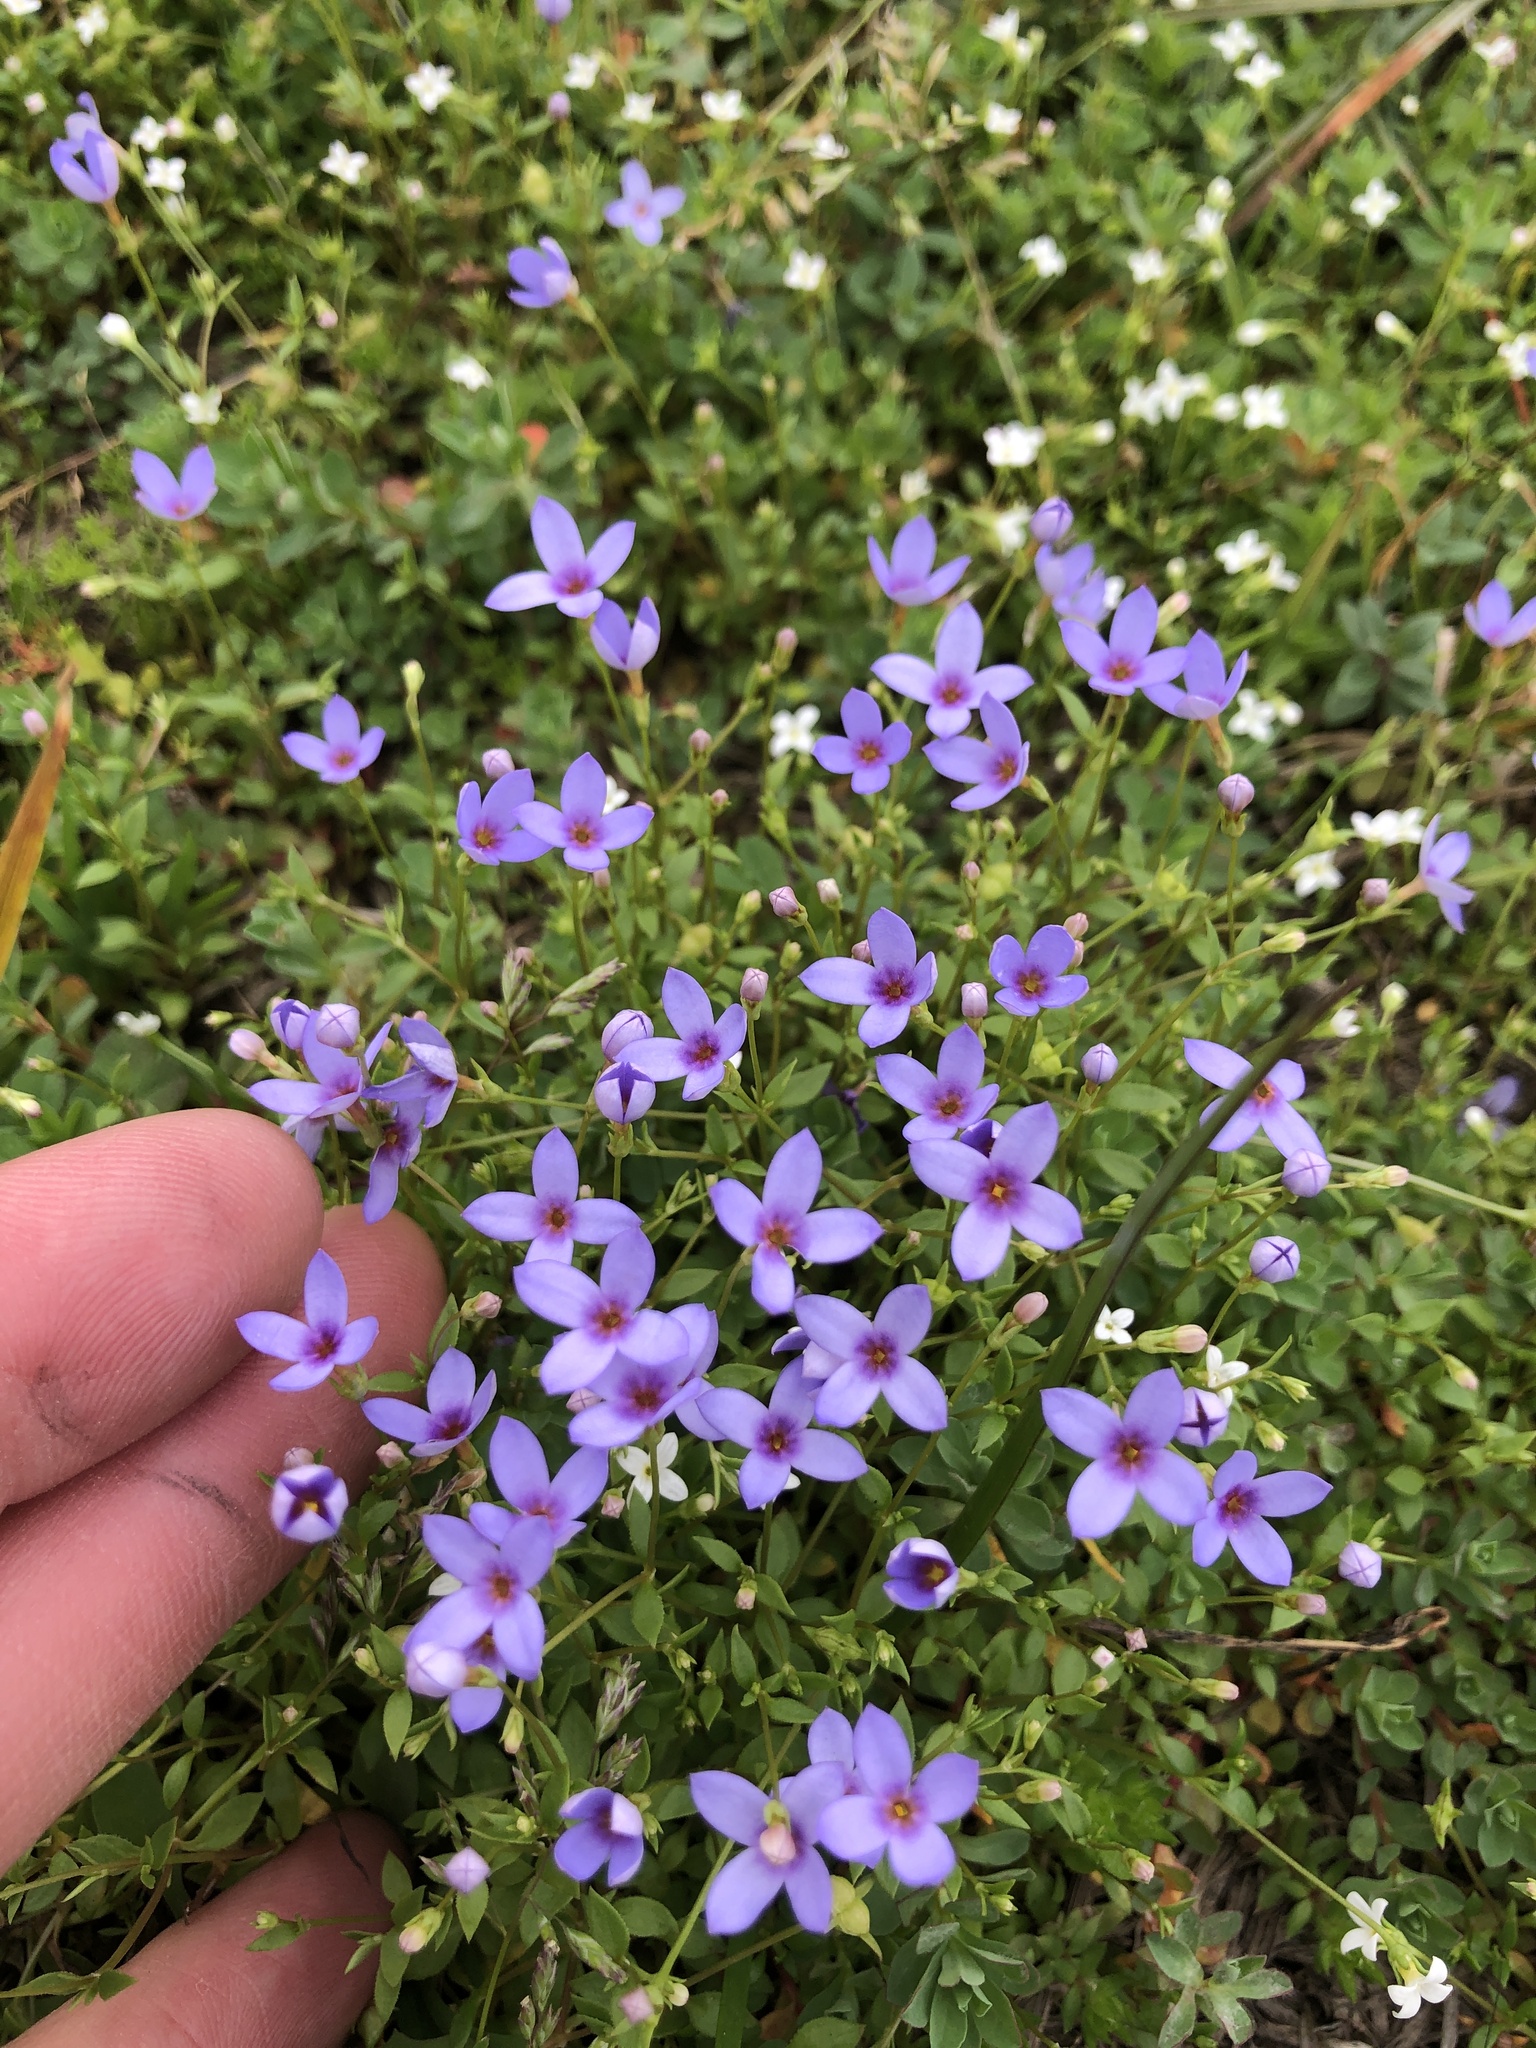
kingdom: Plantae
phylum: Tracheophyta
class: Magnoliopsida
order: Gentianales
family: Rubiaceae
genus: Houstonia
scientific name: Houstonia pusilla
